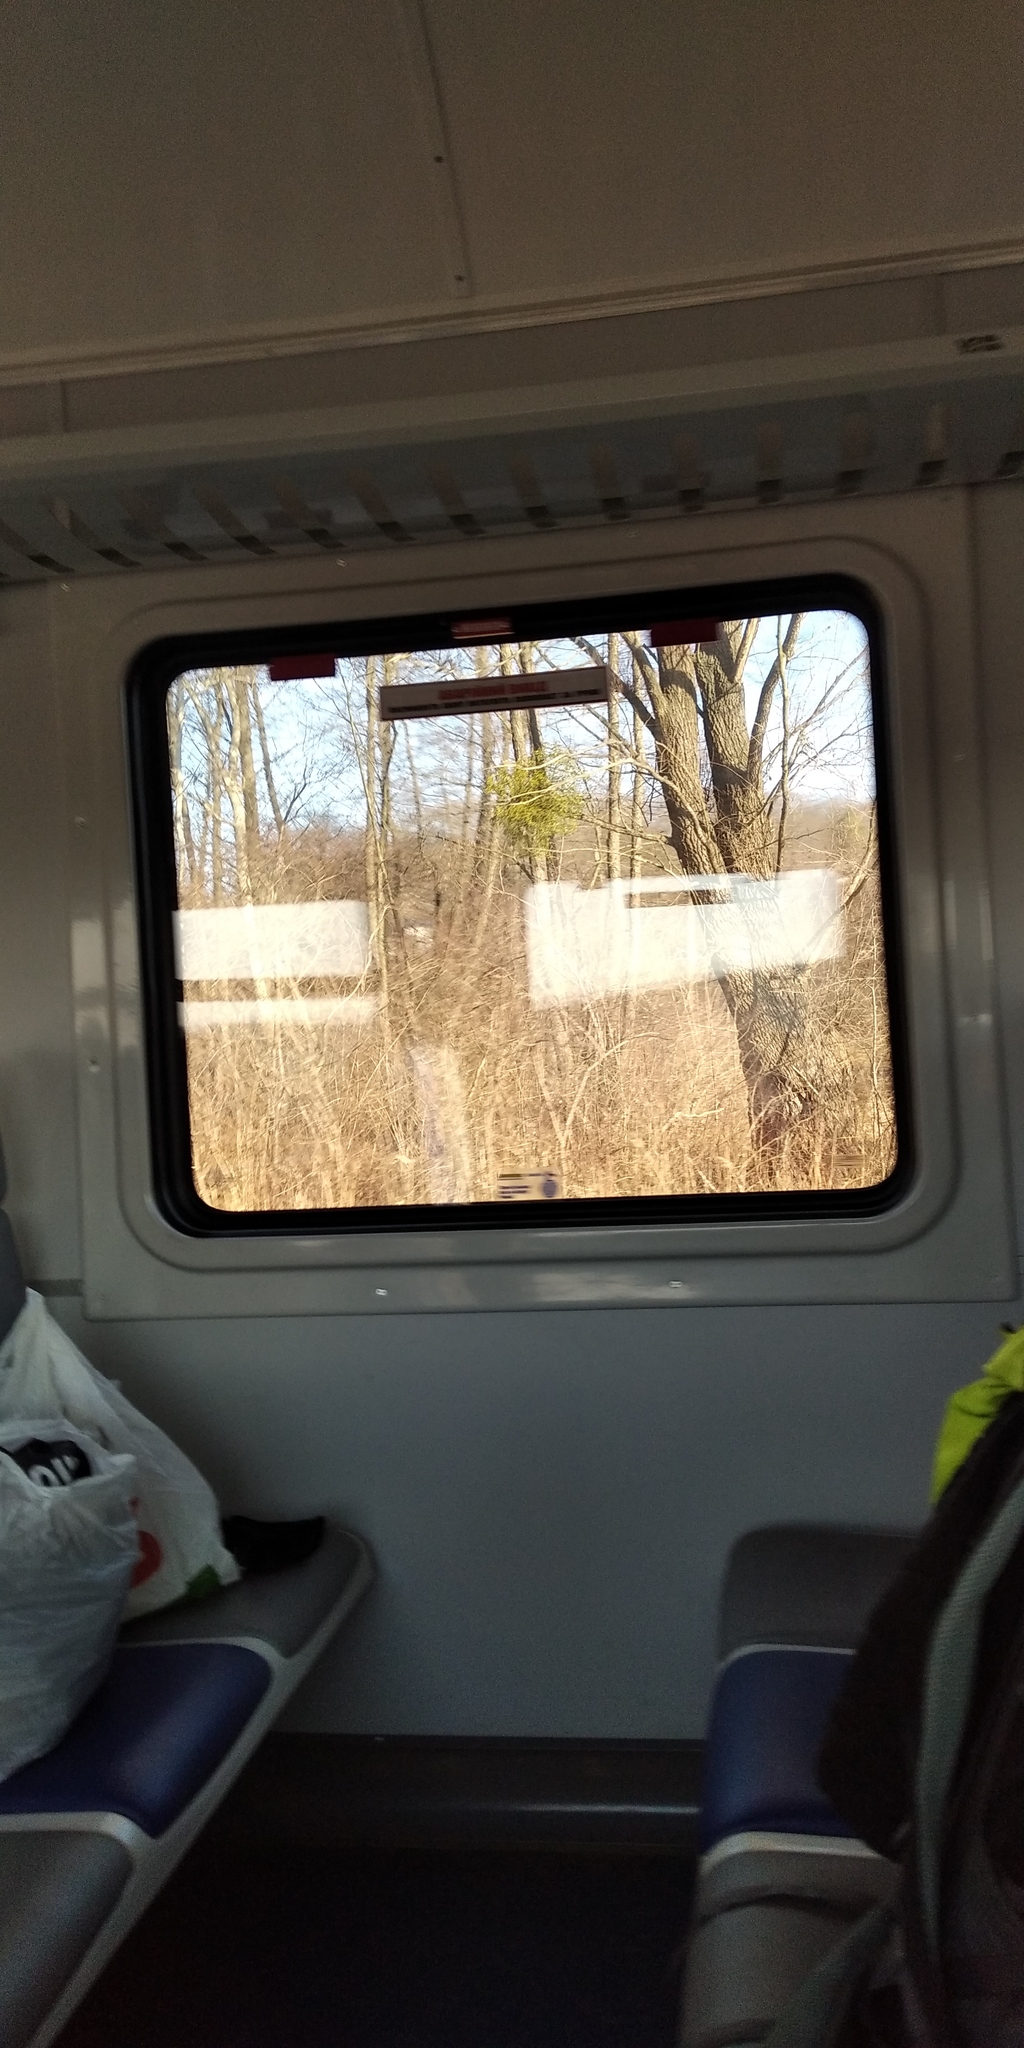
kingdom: Plantae
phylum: Tracheophyta
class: Magnoliopsida
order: Santalales
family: Viscaceae
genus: Viscum
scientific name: Viscum album
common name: Mistletoe
